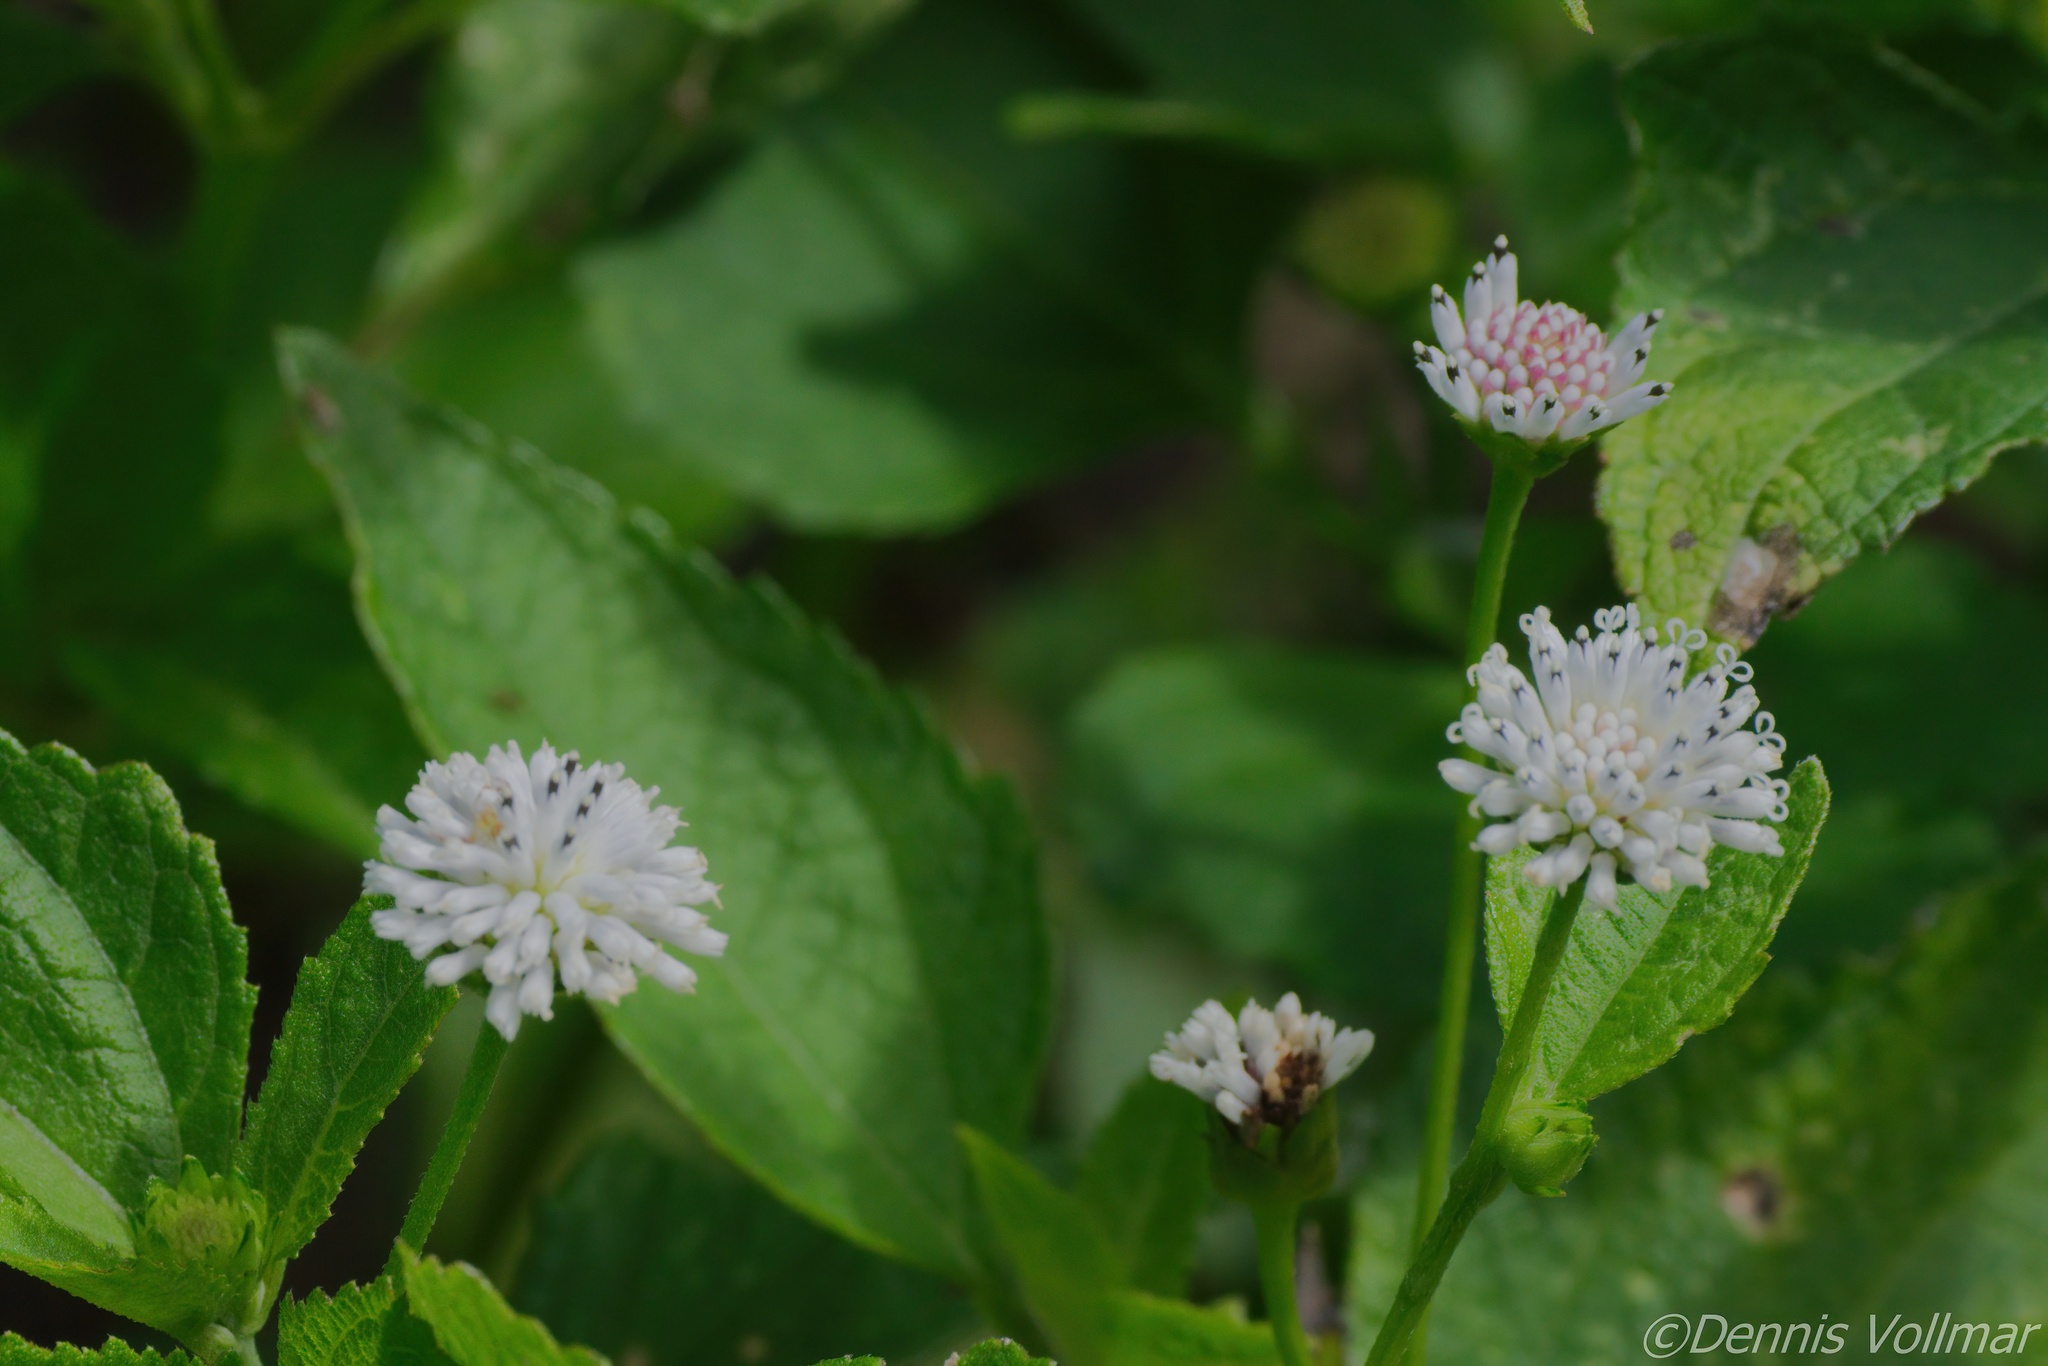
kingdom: Plantae
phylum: Tracheophyta
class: Magnoliopsida
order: Asterales
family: Asteraceae
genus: Melanthera
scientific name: Melanthera nivea
